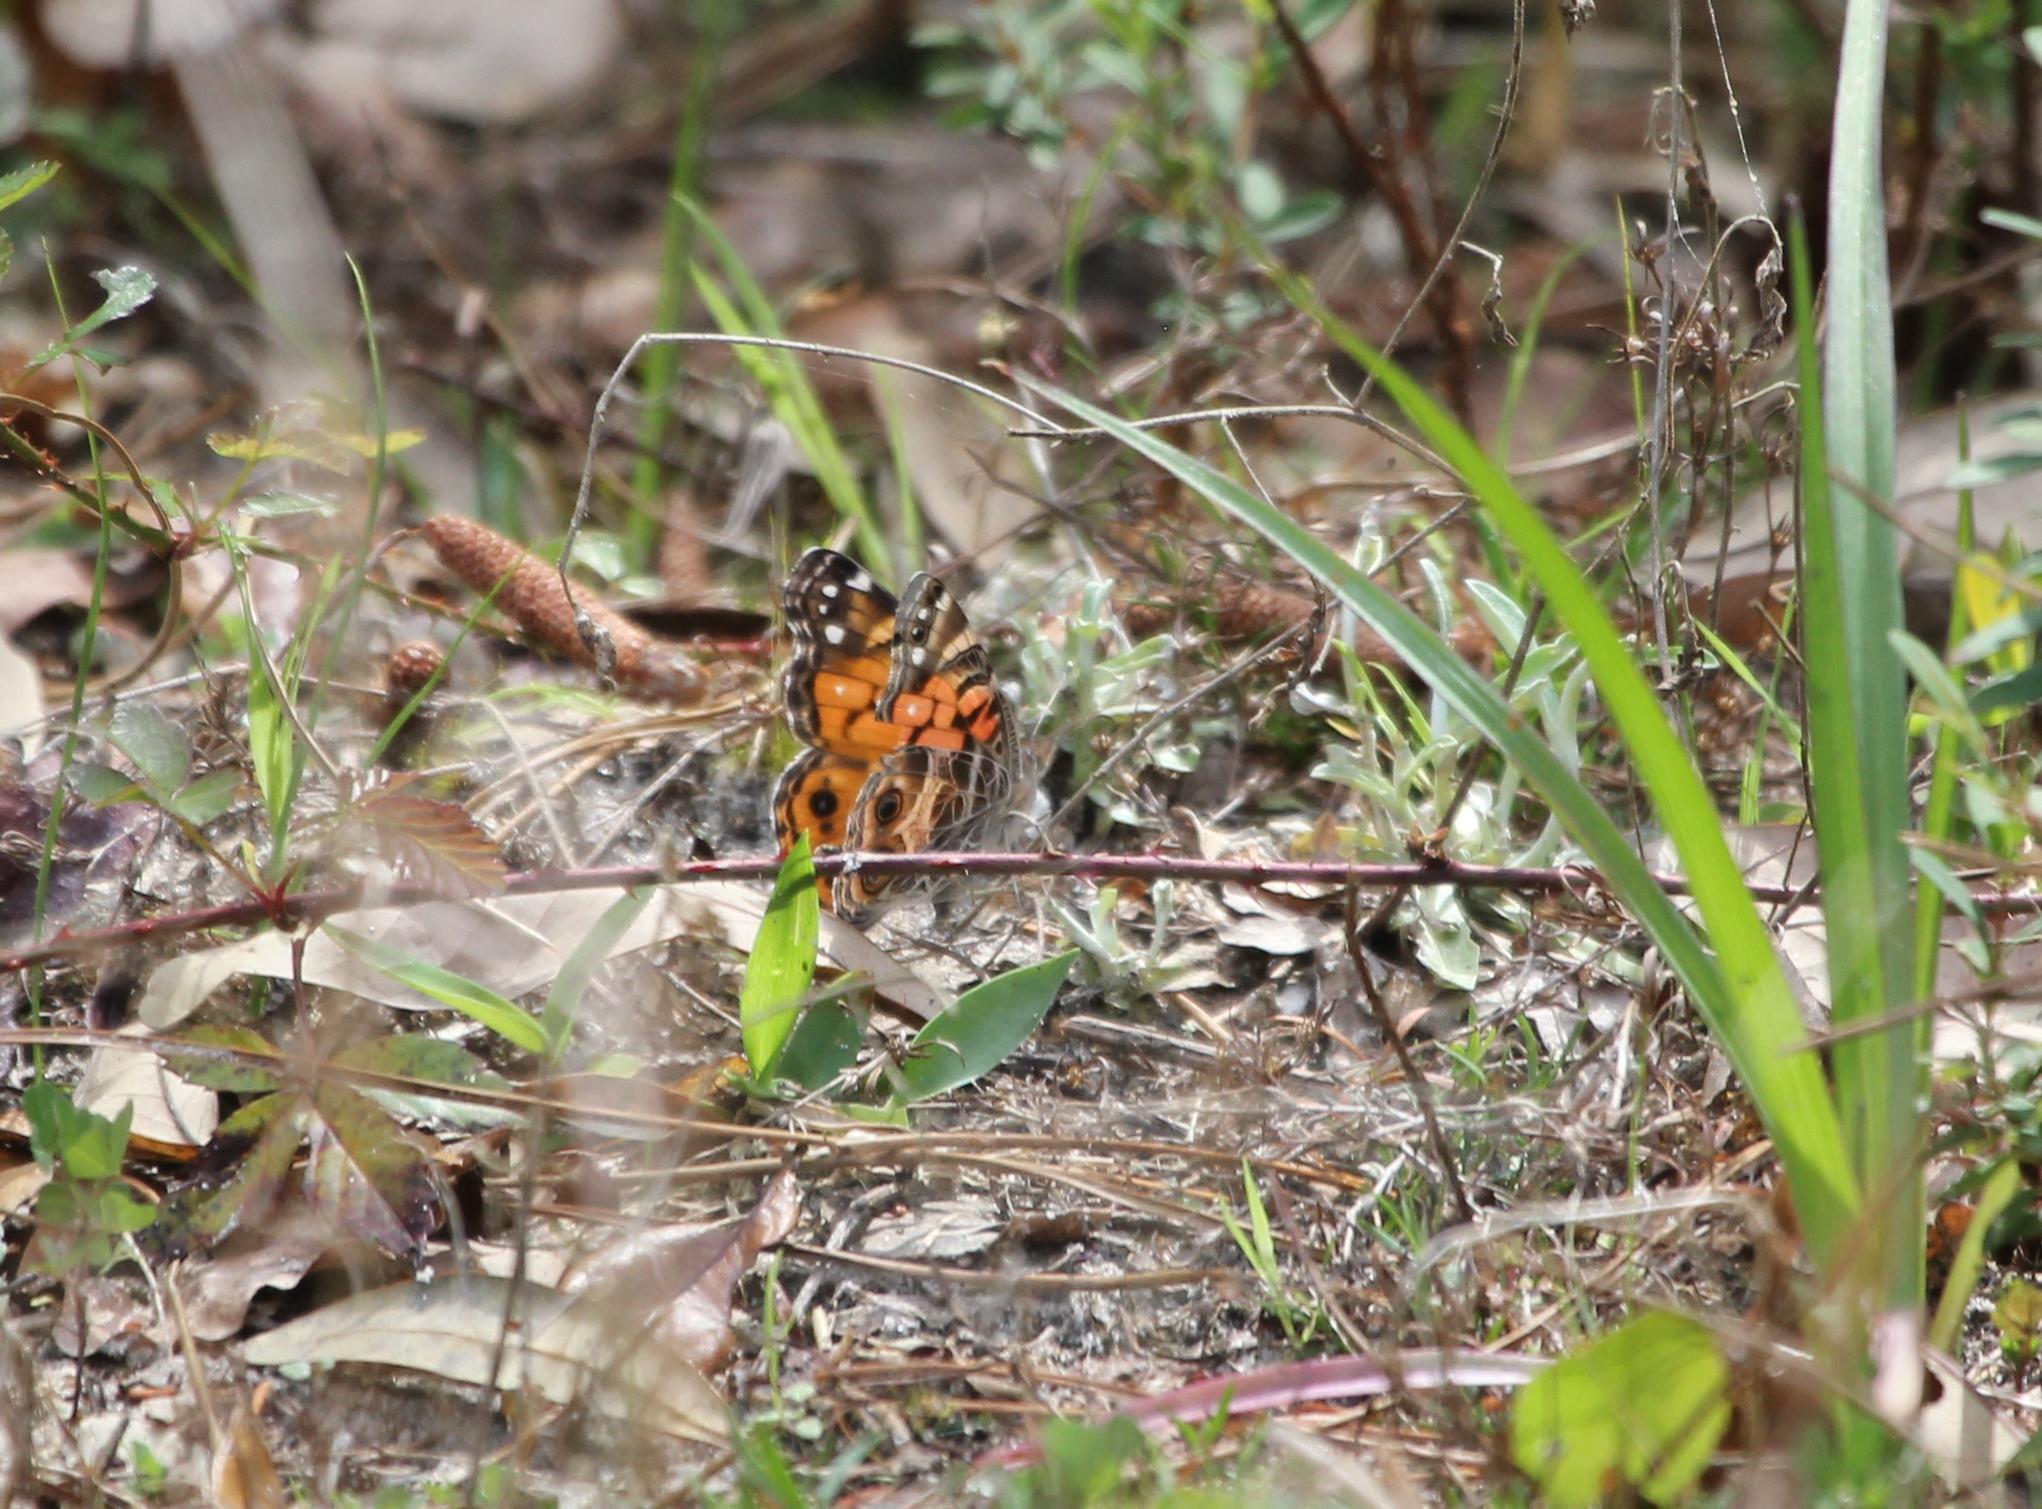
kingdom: Animalia
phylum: Arthropoda
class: Insecta
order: Lepidoptera
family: Nymphalidae
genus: Vanessa
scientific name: Vanessa virginiensis
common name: American lady
